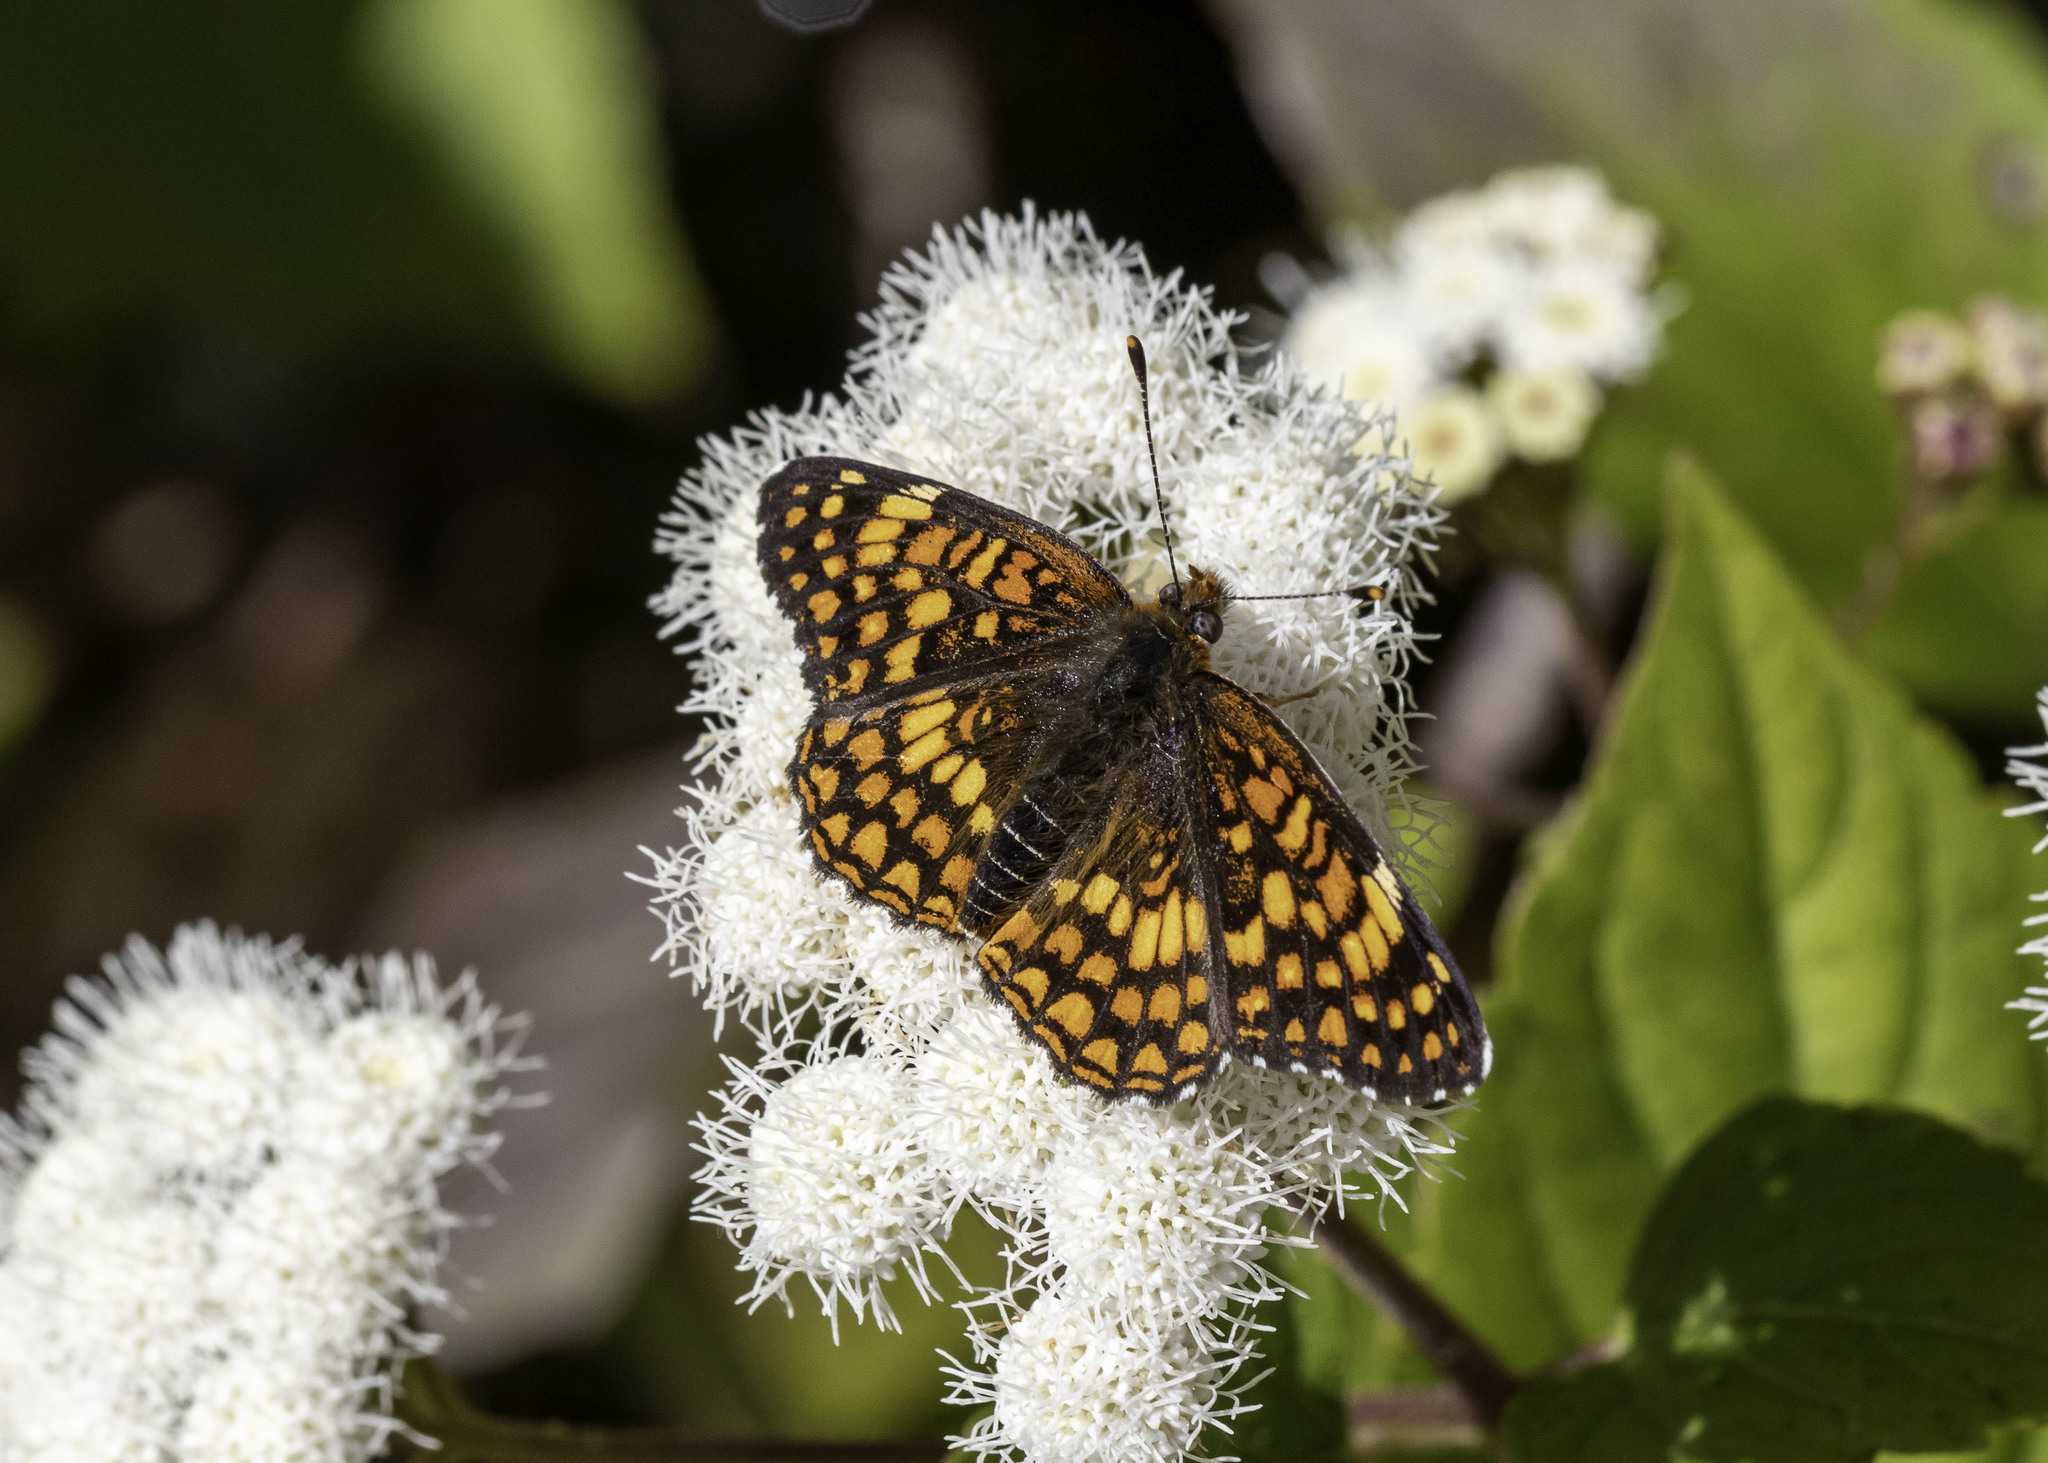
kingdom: Animalia
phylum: Arthropoda
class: Insecta
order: Lepidoptera
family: Nymphalidae
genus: Chlosyne
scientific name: Chlosyne gabbii
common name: Gabb's checkerspot
